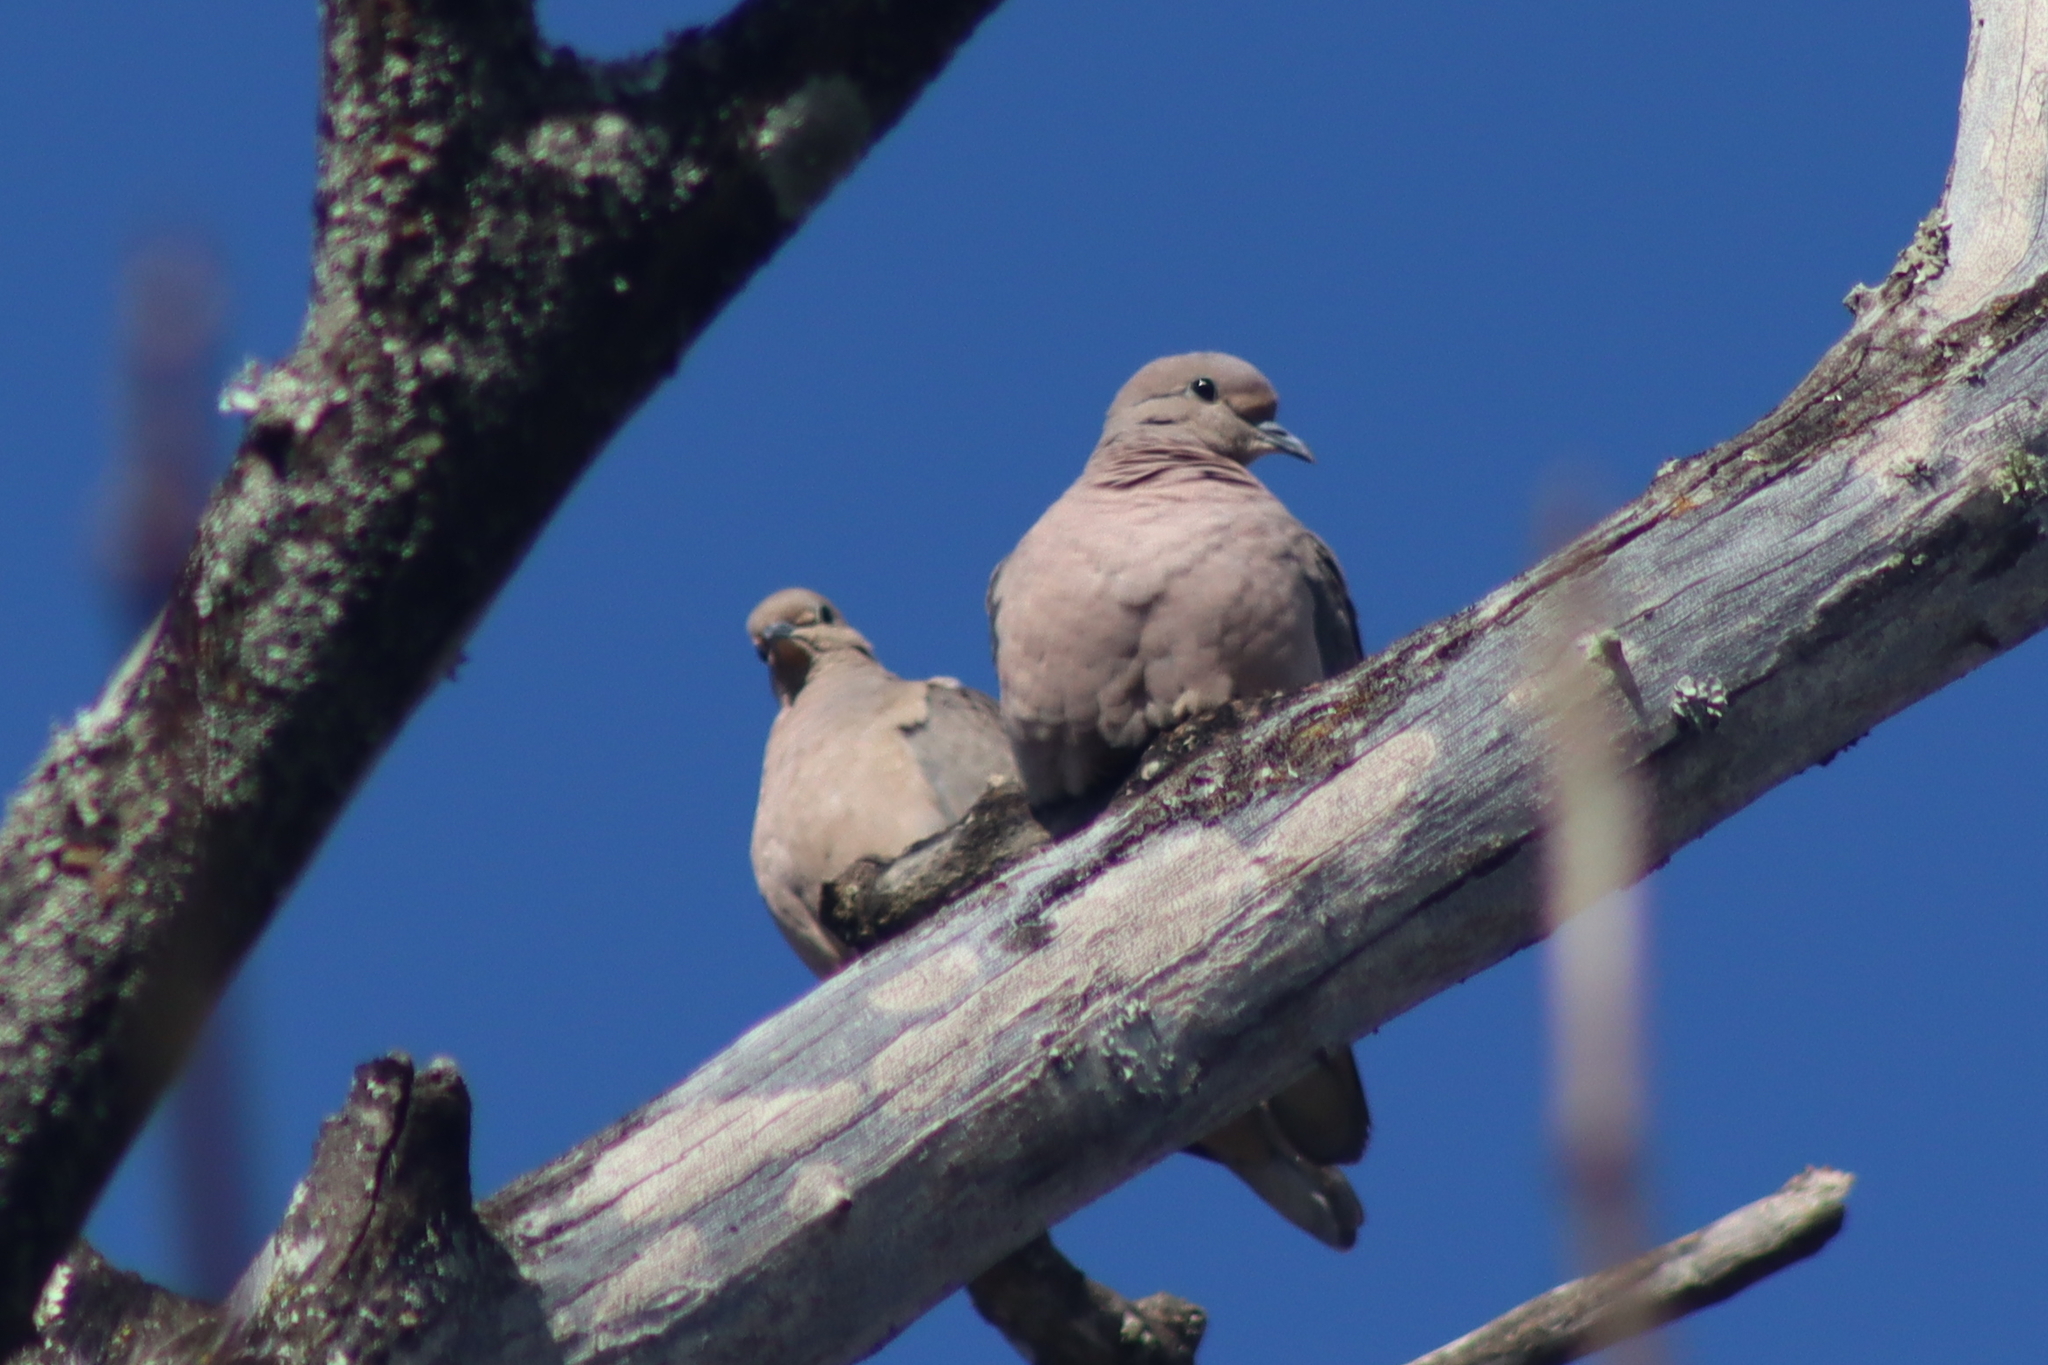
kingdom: Animalia
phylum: Chordata
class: Aves
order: Columbiformes
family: Columbidae
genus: Zenaida
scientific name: Zenaida auriculata
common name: Eared dove
